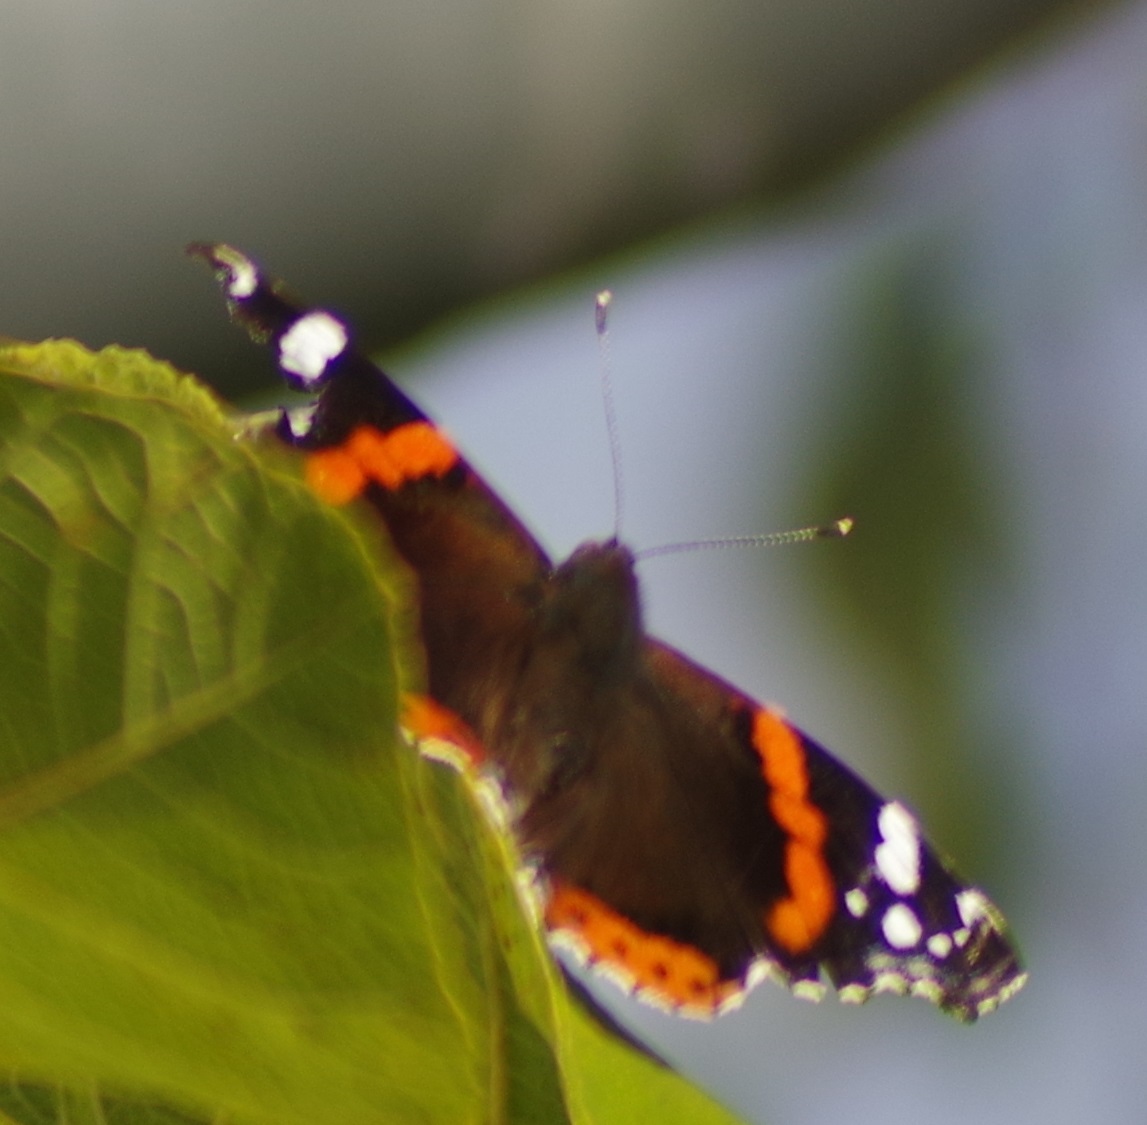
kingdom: Animalia
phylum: Arthropoda
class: Insecta
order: Lepidoptera
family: Nymphalidae
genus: Vanessa
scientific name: Vanessa atalanta
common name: Red admiral
